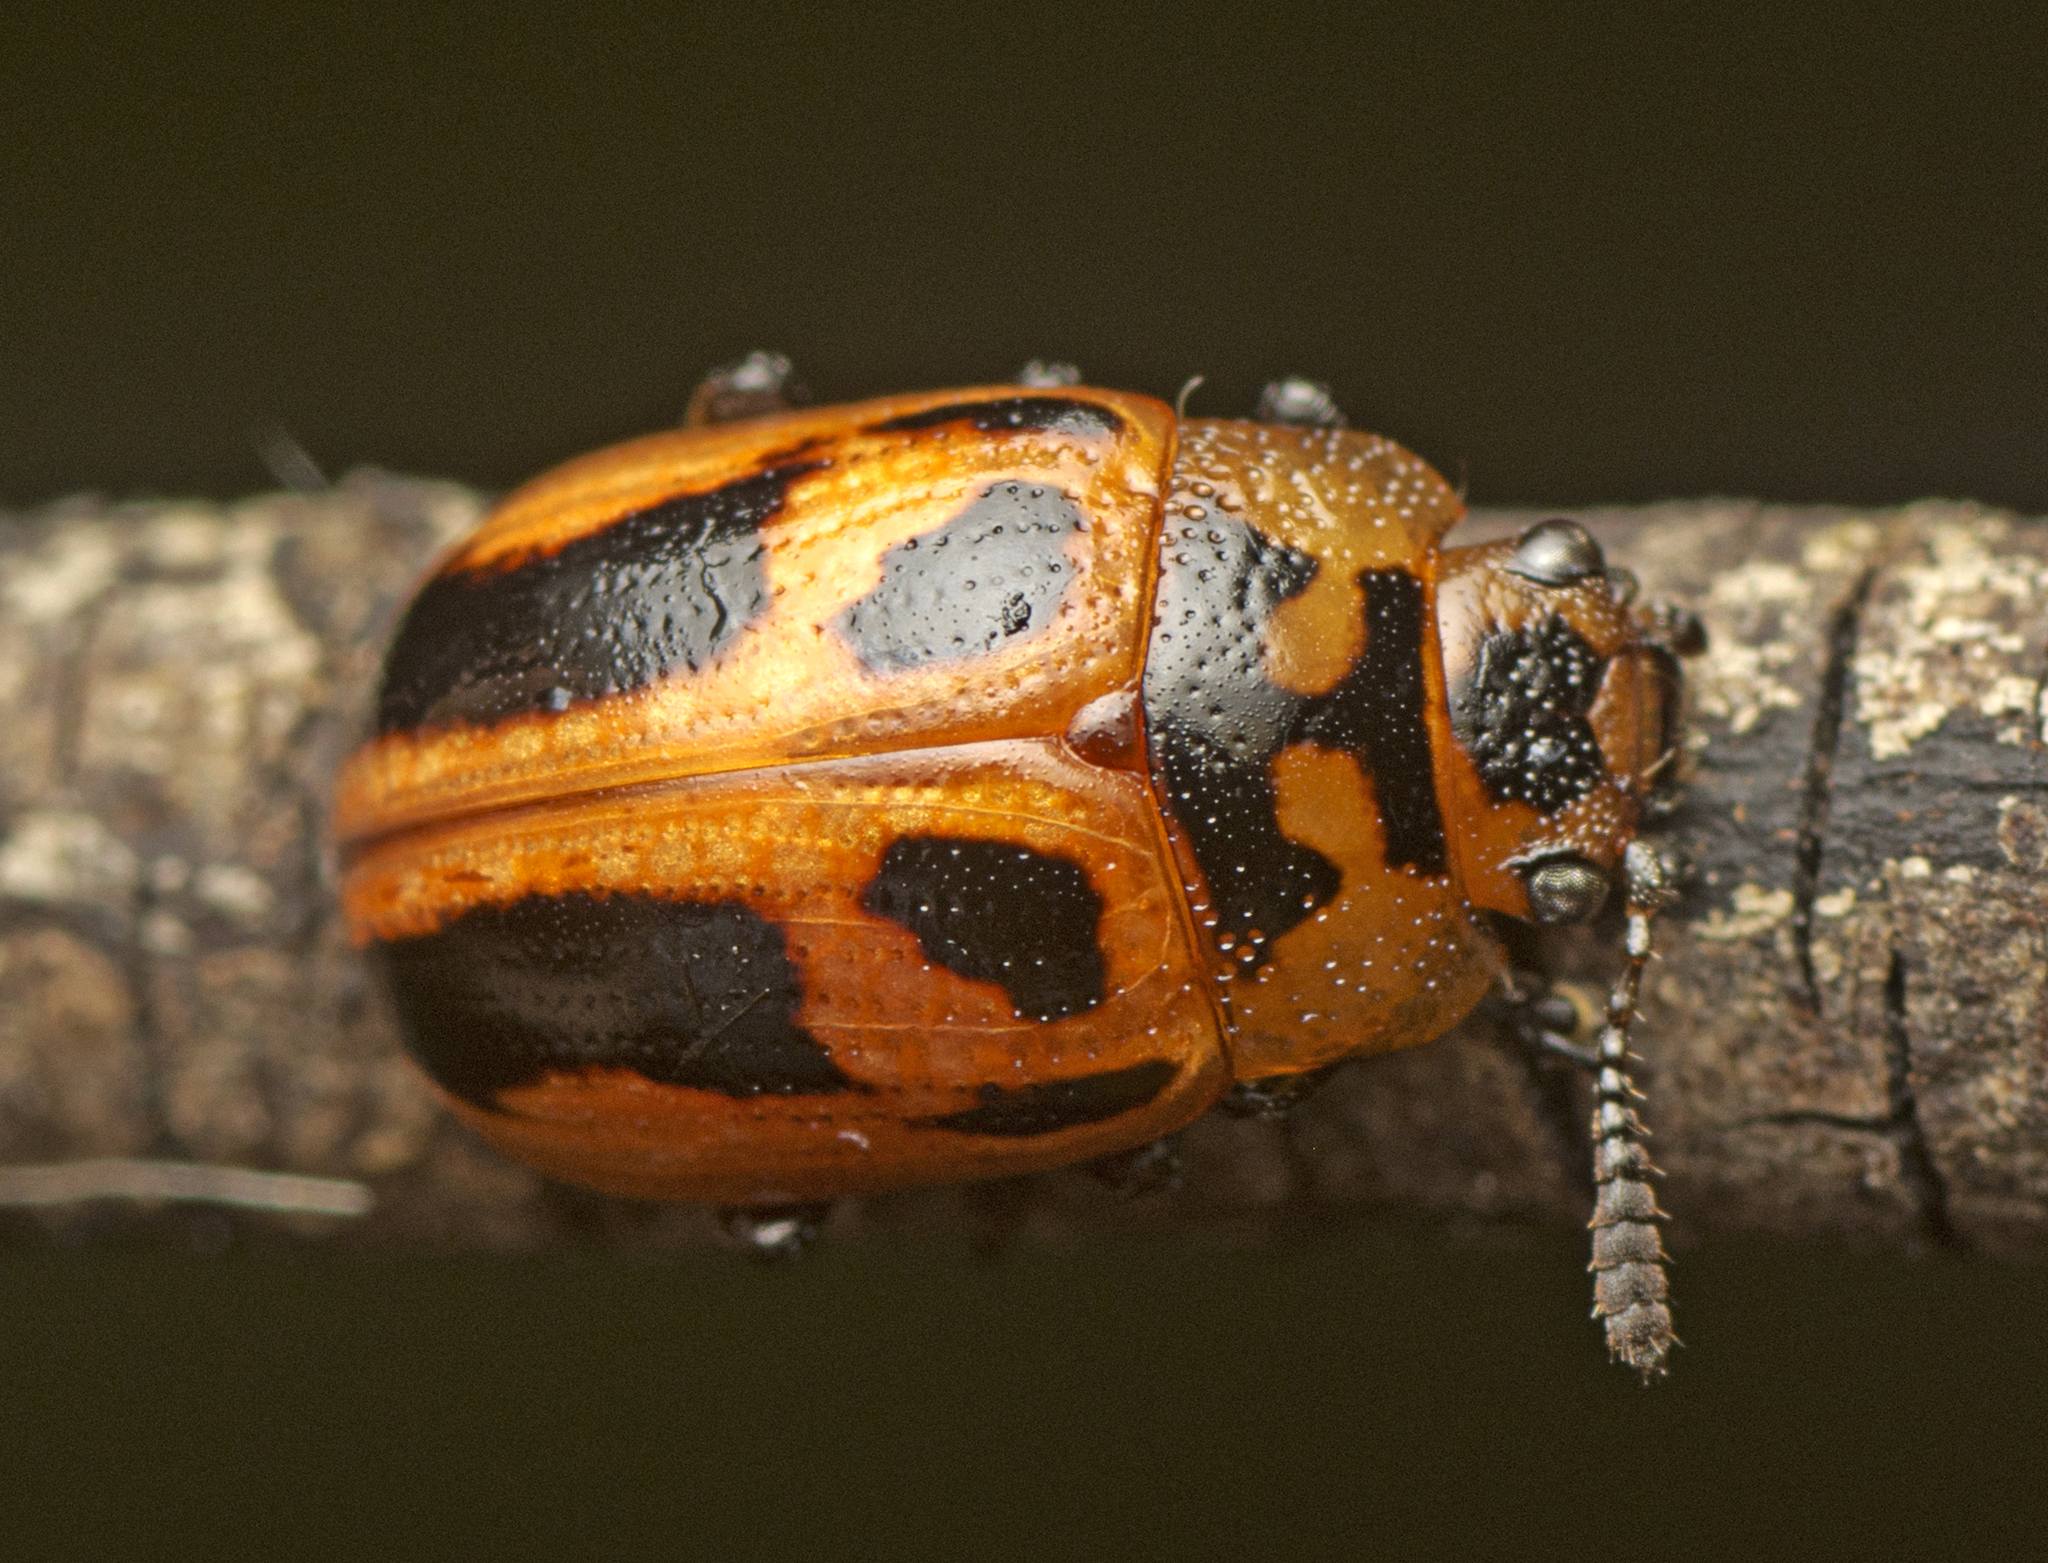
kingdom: Animalia
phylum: Arthropoda
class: Insecta
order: Coleoptera
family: Chrysomelidae
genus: Calomela
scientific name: Calomela
